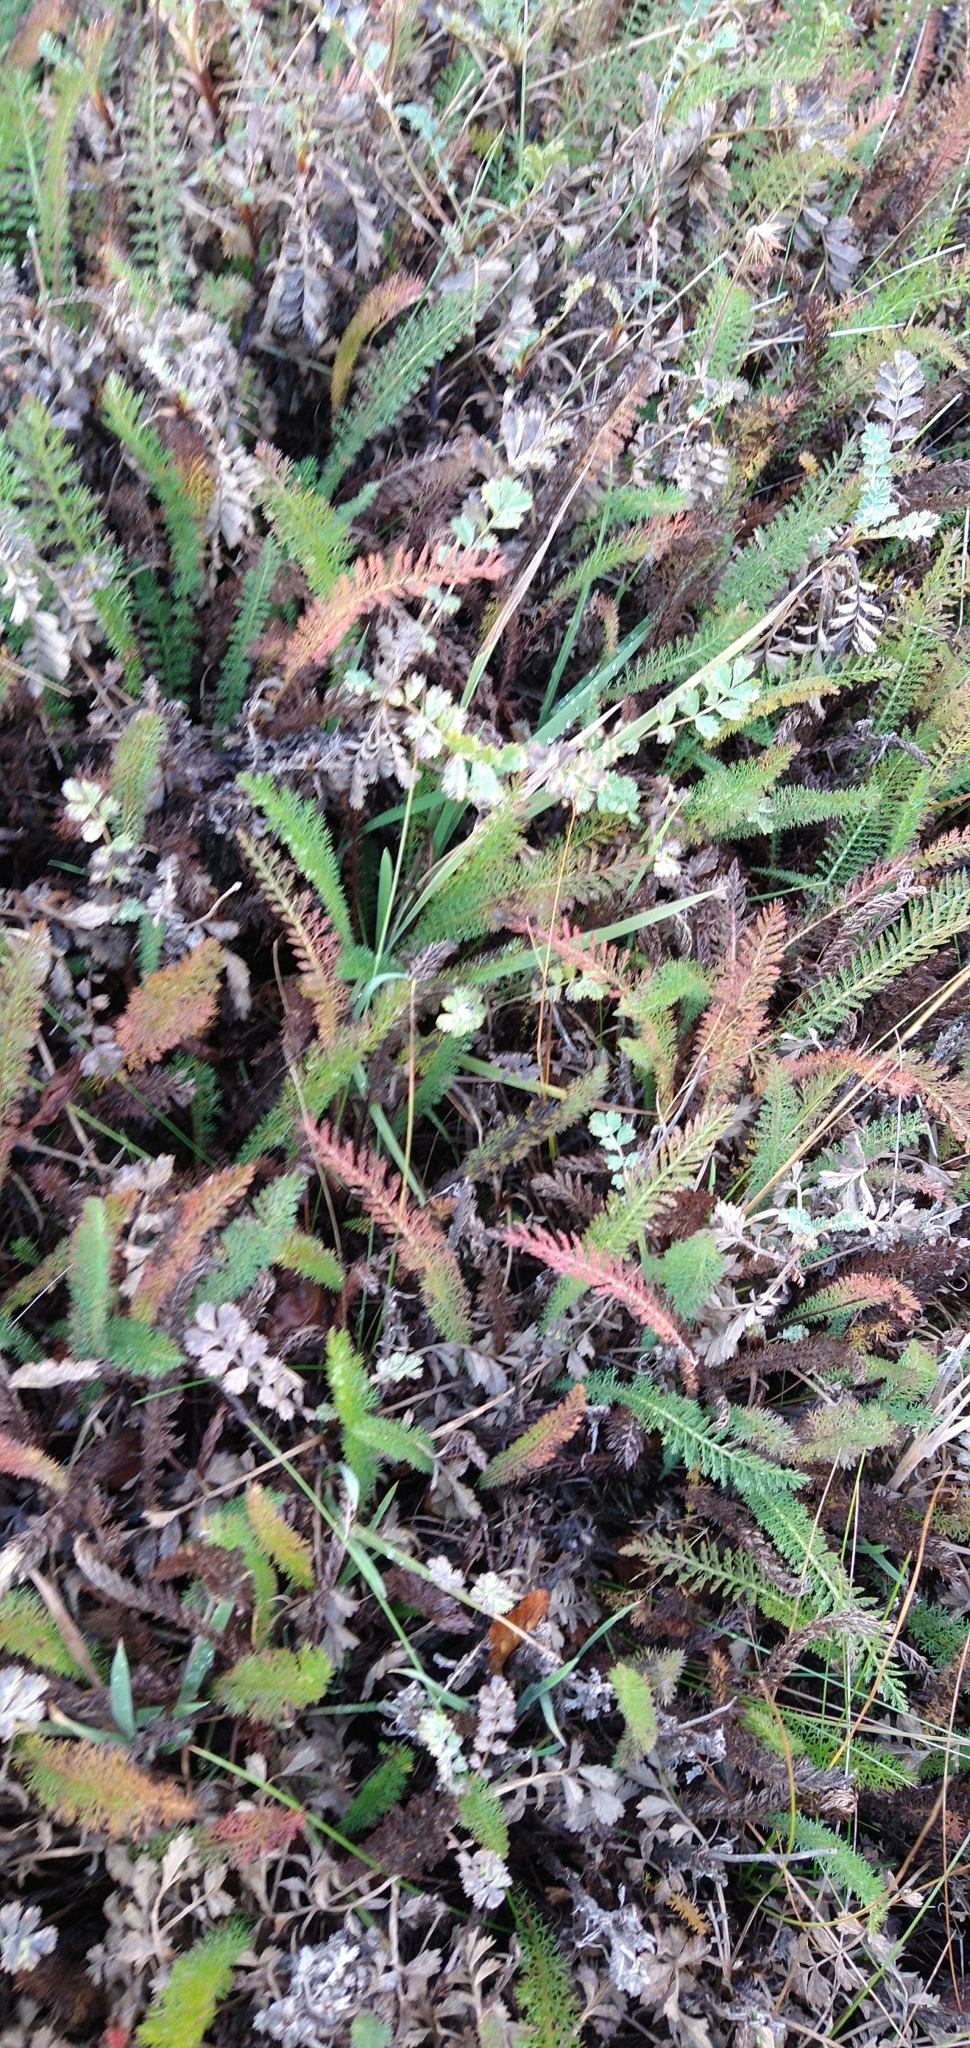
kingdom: Plantae
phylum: Tracheophyta
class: Magnoliopsida
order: Asterales
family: Asteraceae
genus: Achillea
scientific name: Achillea millefolium
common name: Yarrow
